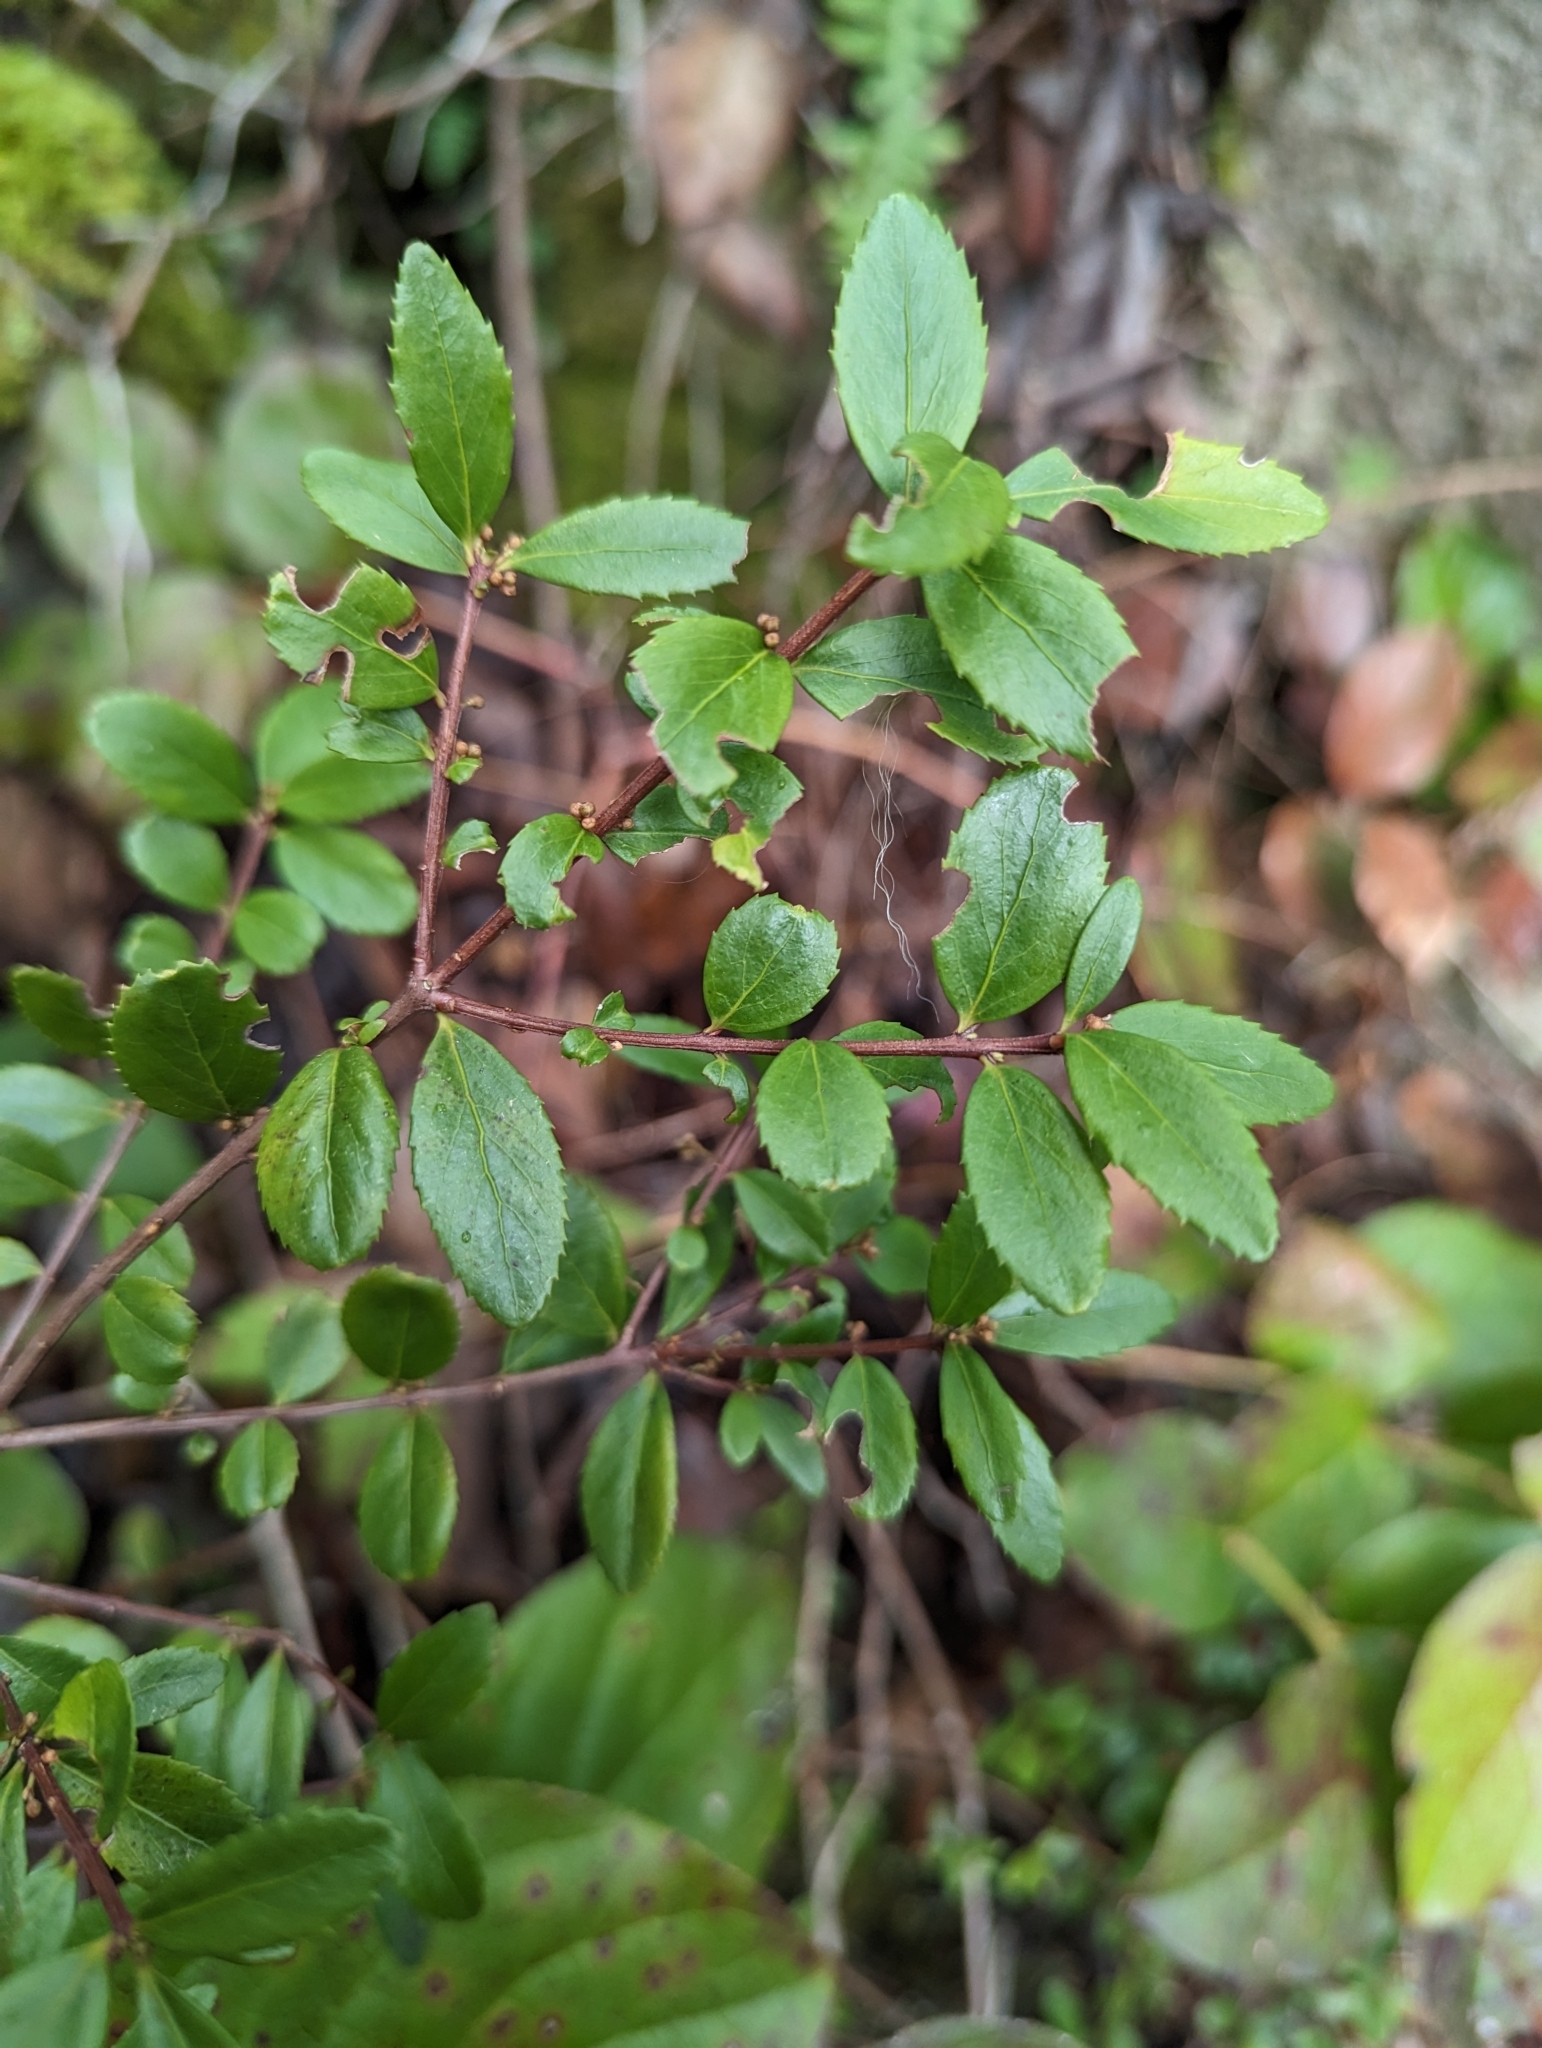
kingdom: Plantae
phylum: Tracheophyta
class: Magnoliopsida
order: Celastrales
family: Celastraceae
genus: Paxistima
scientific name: Paxistima myrsinites
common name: Mountain-lover
